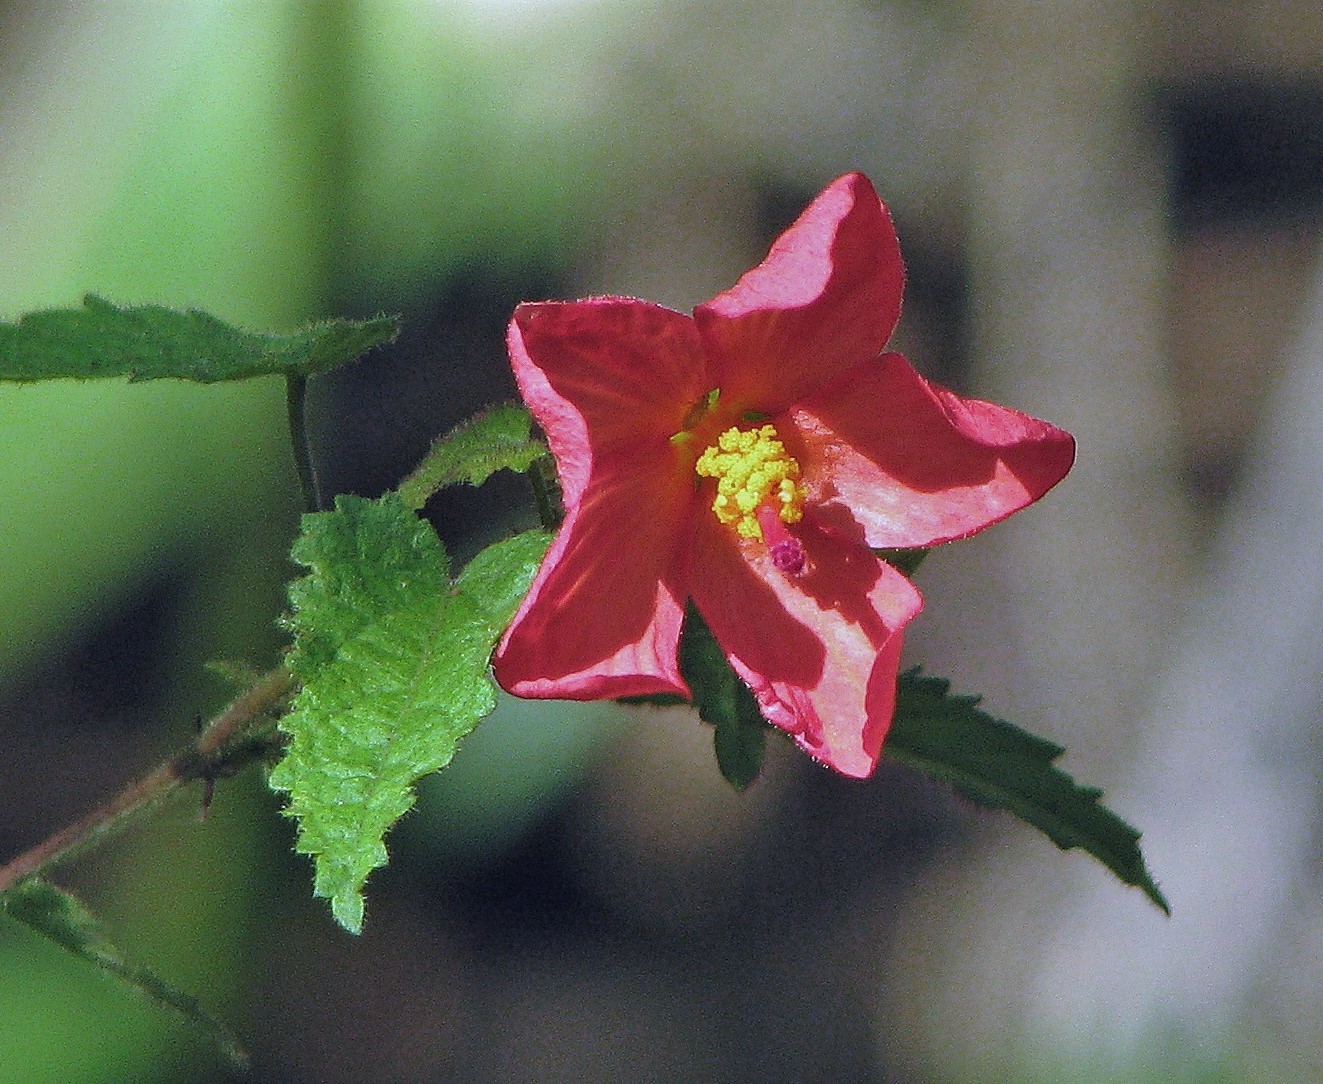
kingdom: Plantae
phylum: Tracheophyta
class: Magnoliopsida
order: Malvales
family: Malvaceae
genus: Pavonia
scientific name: Pavonia missionum
